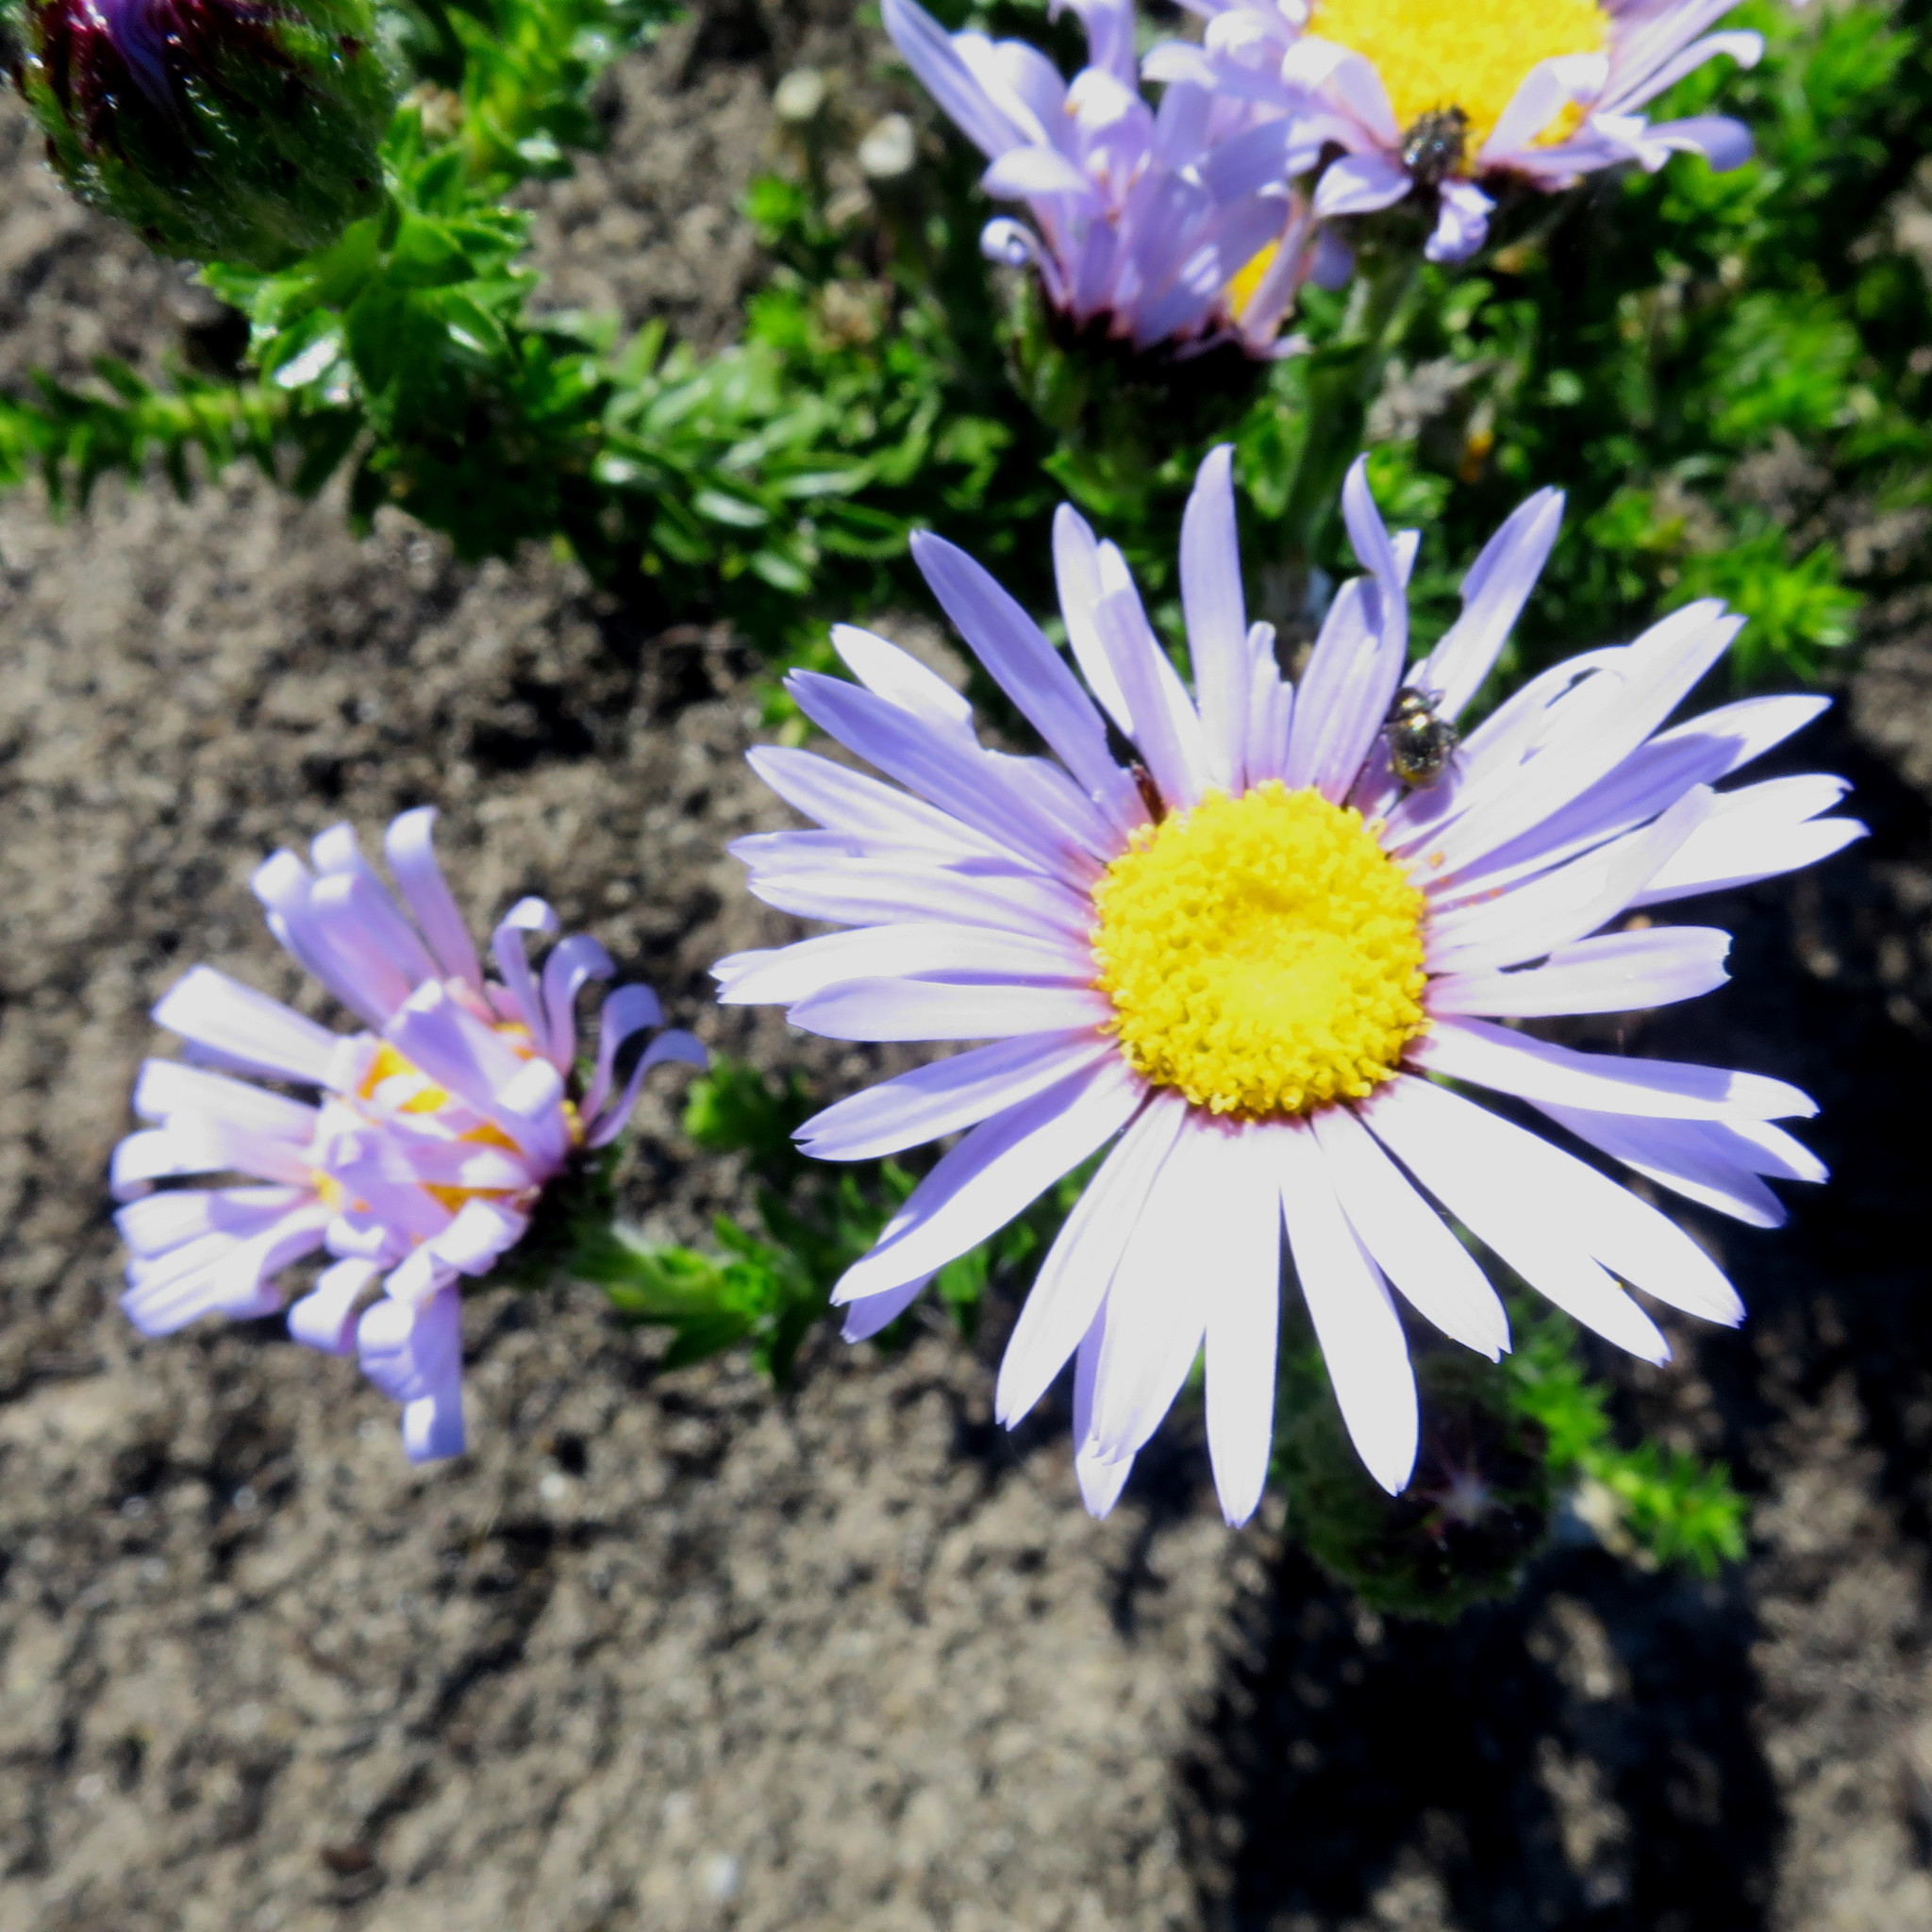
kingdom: Plantae
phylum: Tracheophyta
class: Magnoliopsida
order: Asterales
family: Asteraceae
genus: Felicia
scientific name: Felicia echinata
